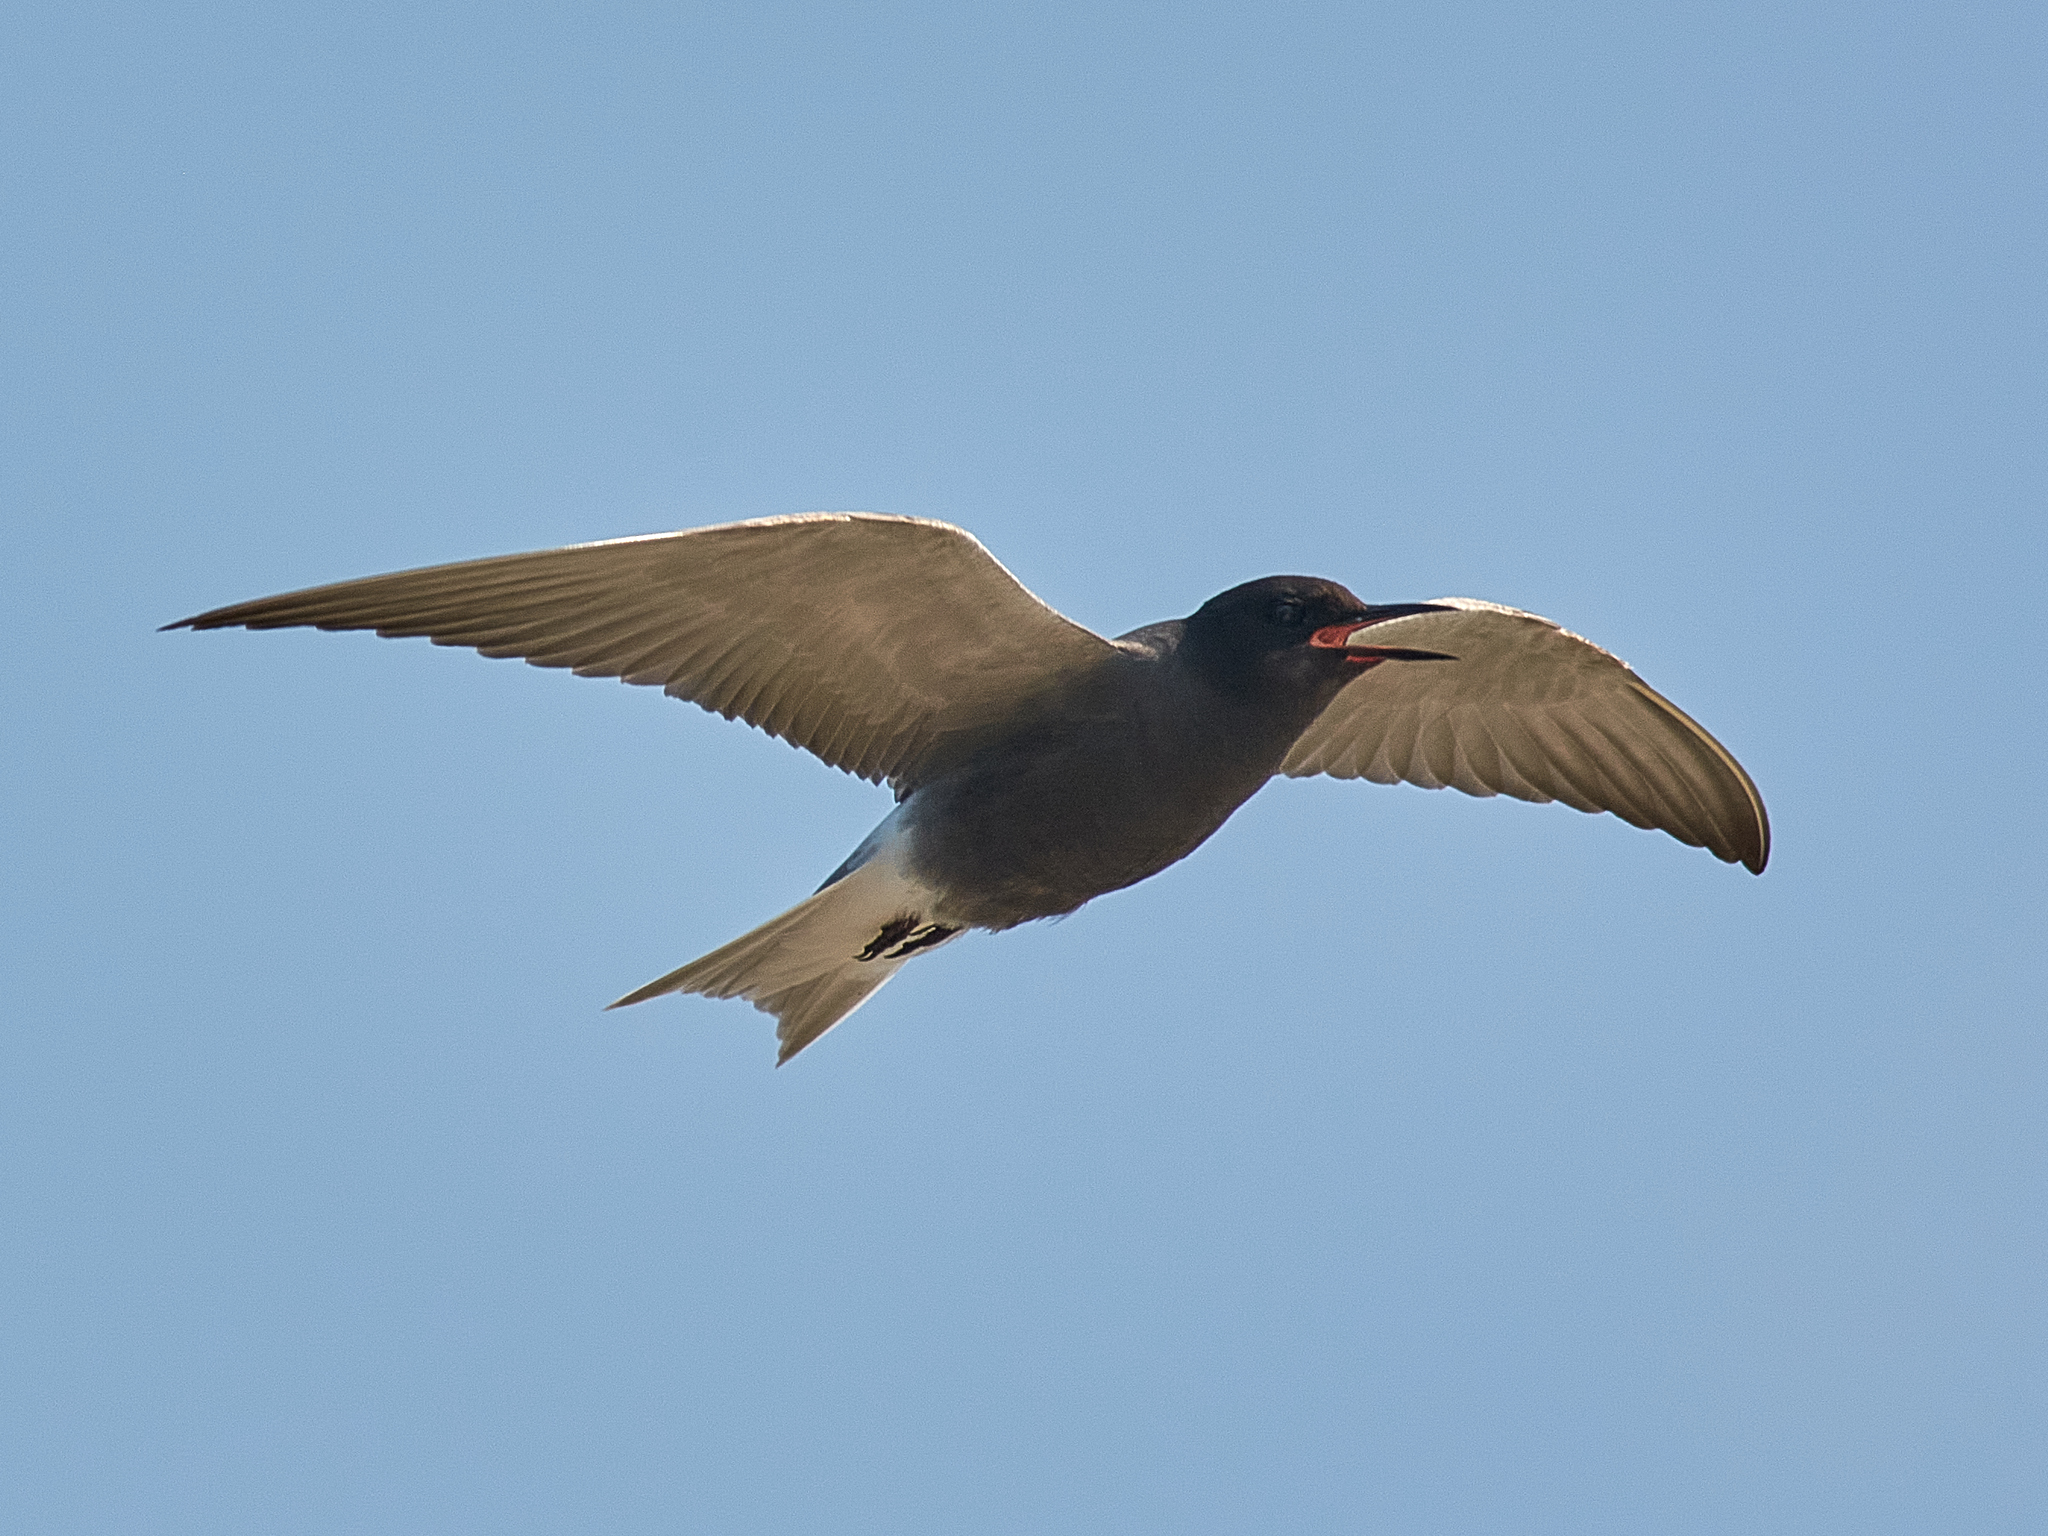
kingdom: Animalia
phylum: Chordata
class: Aves
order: Charadriiformes
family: Laridae
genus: Chlidonias
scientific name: Chlidonias niger
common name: Black tern
